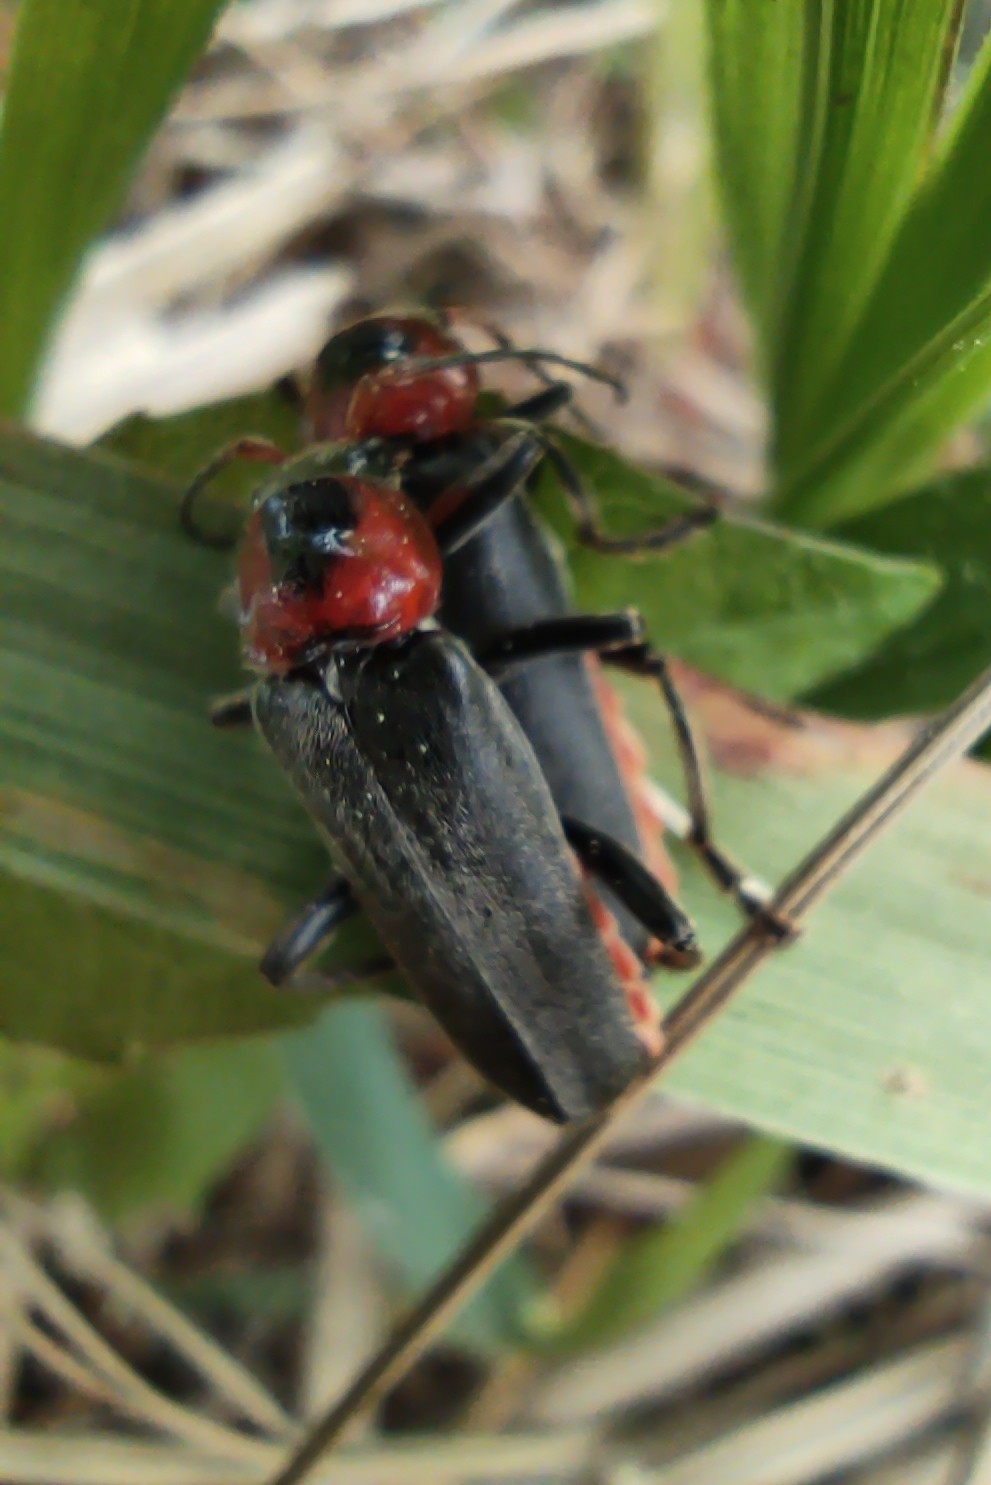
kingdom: Animalia
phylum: Arthropoda
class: Insecta
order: Coleoptera
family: Cantharidae
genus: Cantharis
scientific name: Cantharis fusca
